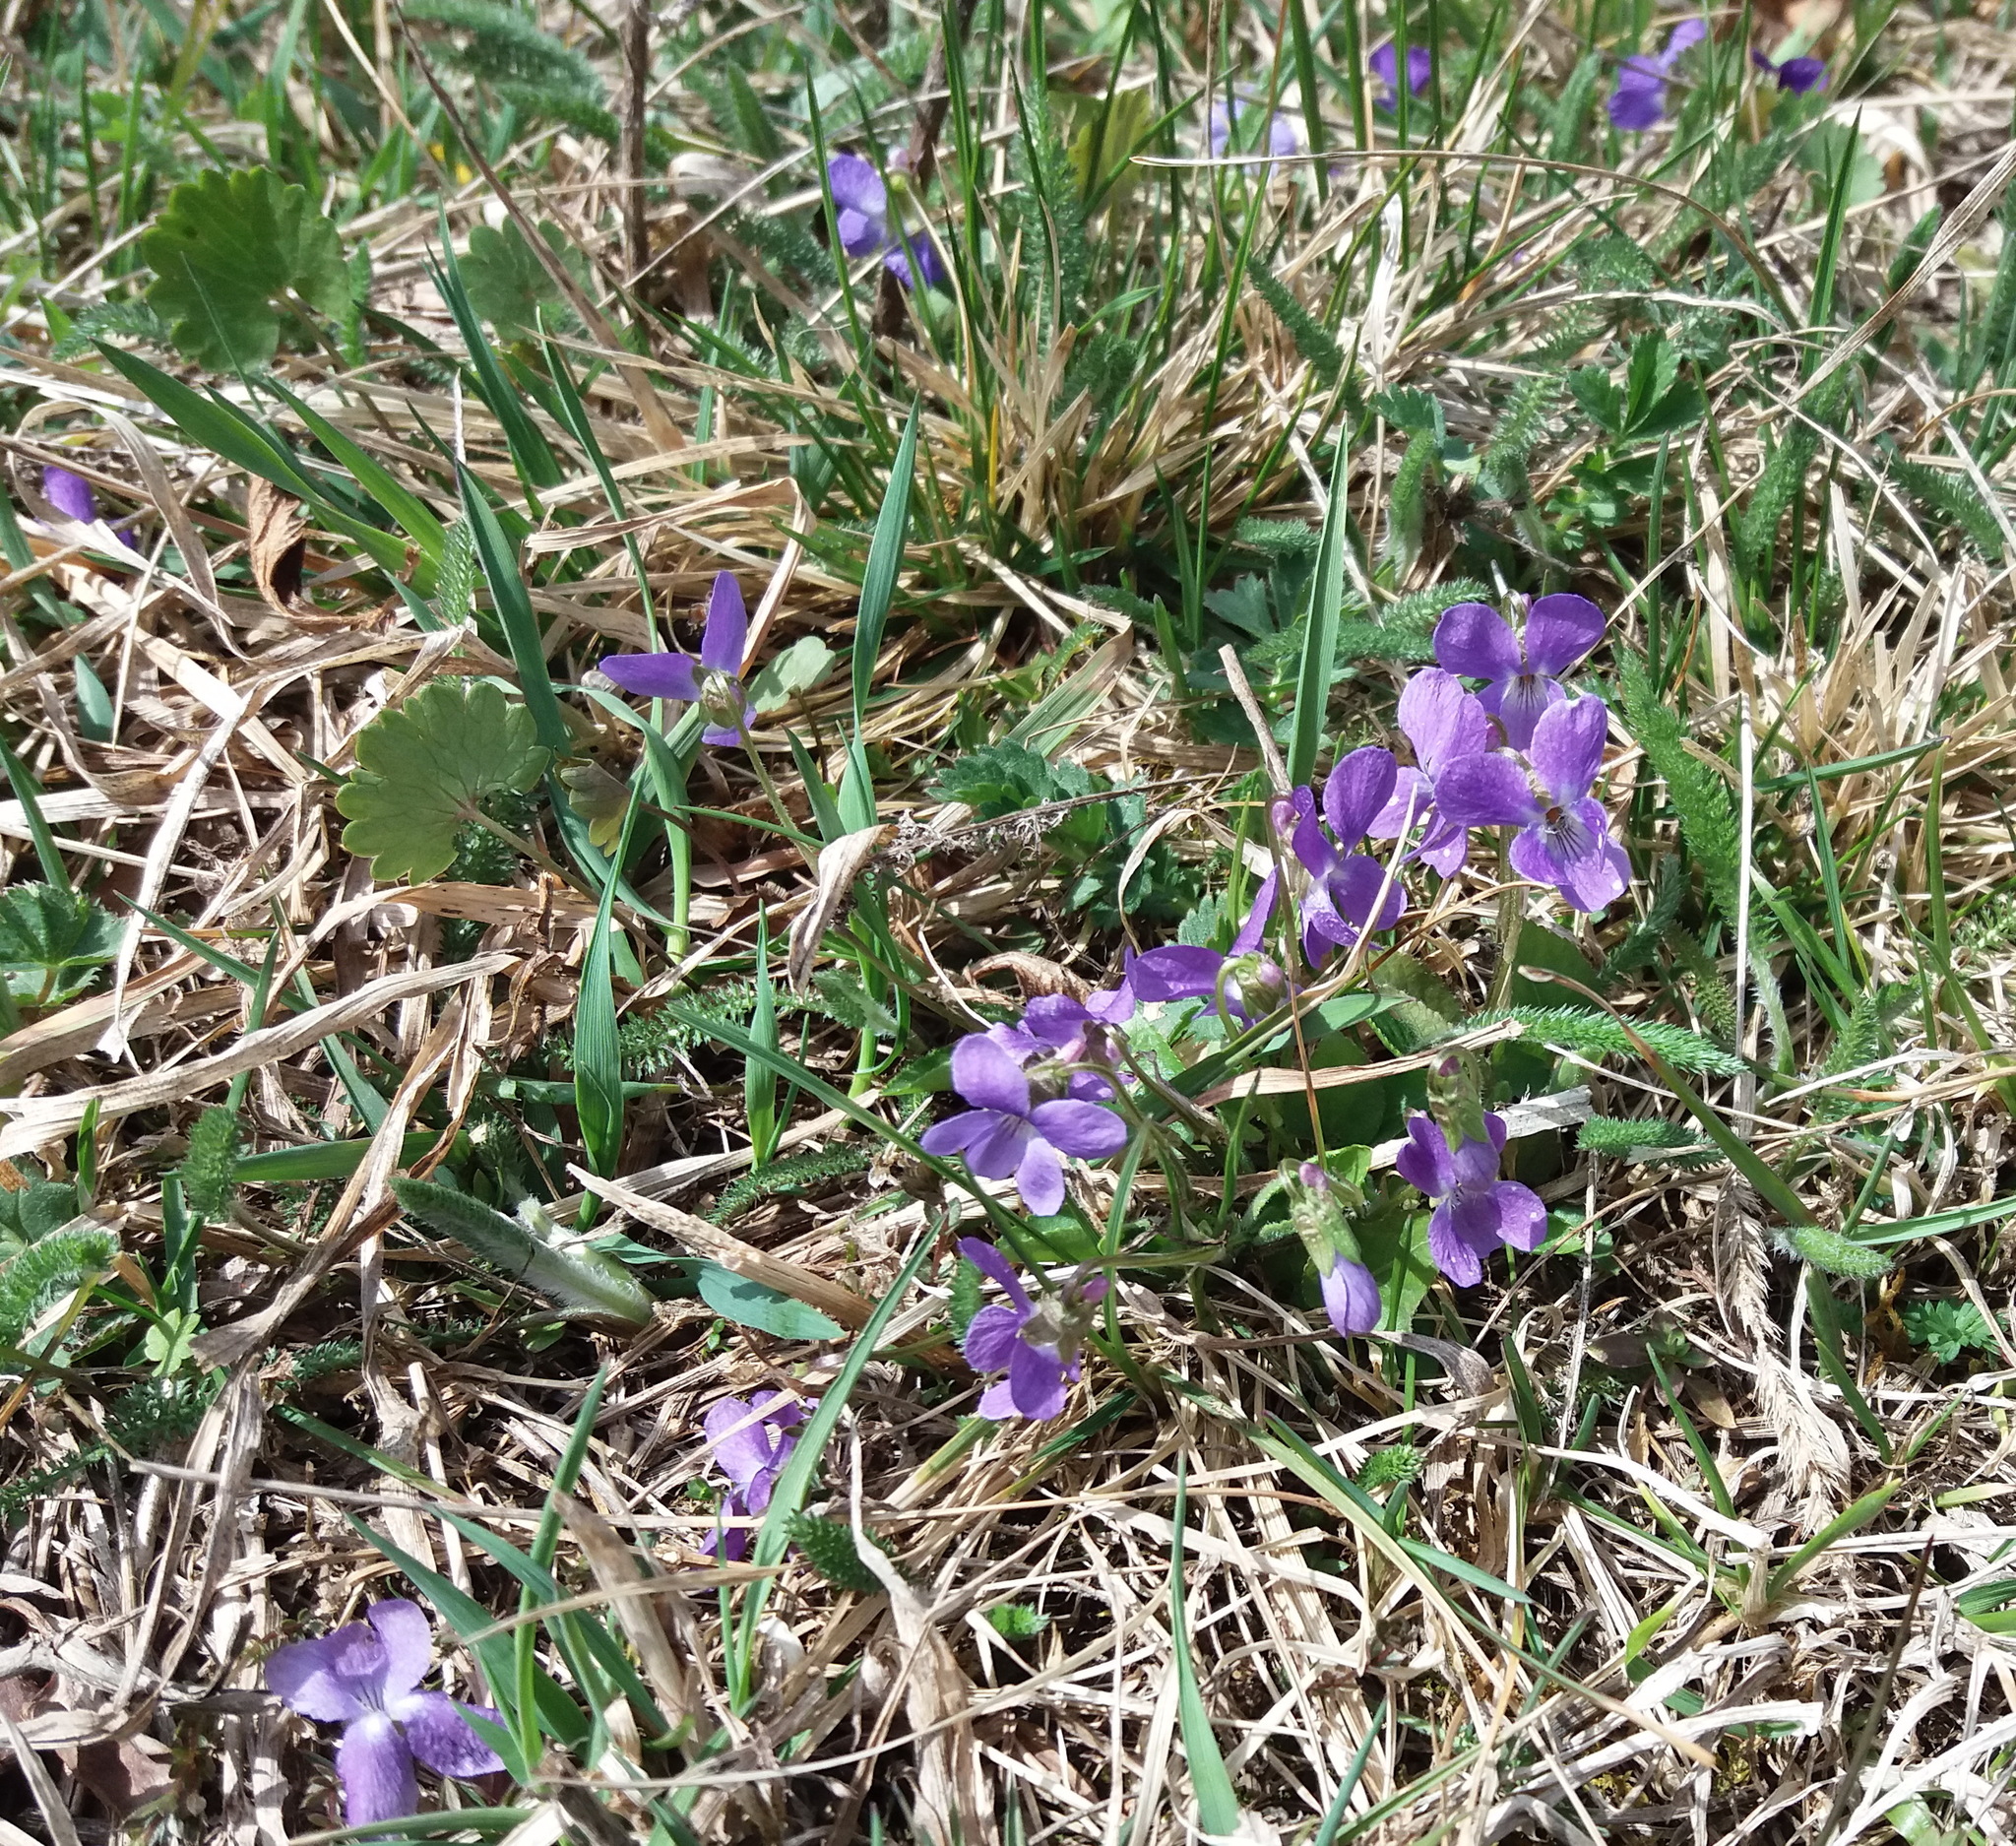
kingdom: Plantae
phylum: Tracheophyta
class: Magnoliopsida
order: Malpighiales
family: Violaceae
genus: Viola
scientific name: Viola hirta
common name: Hairy violet
